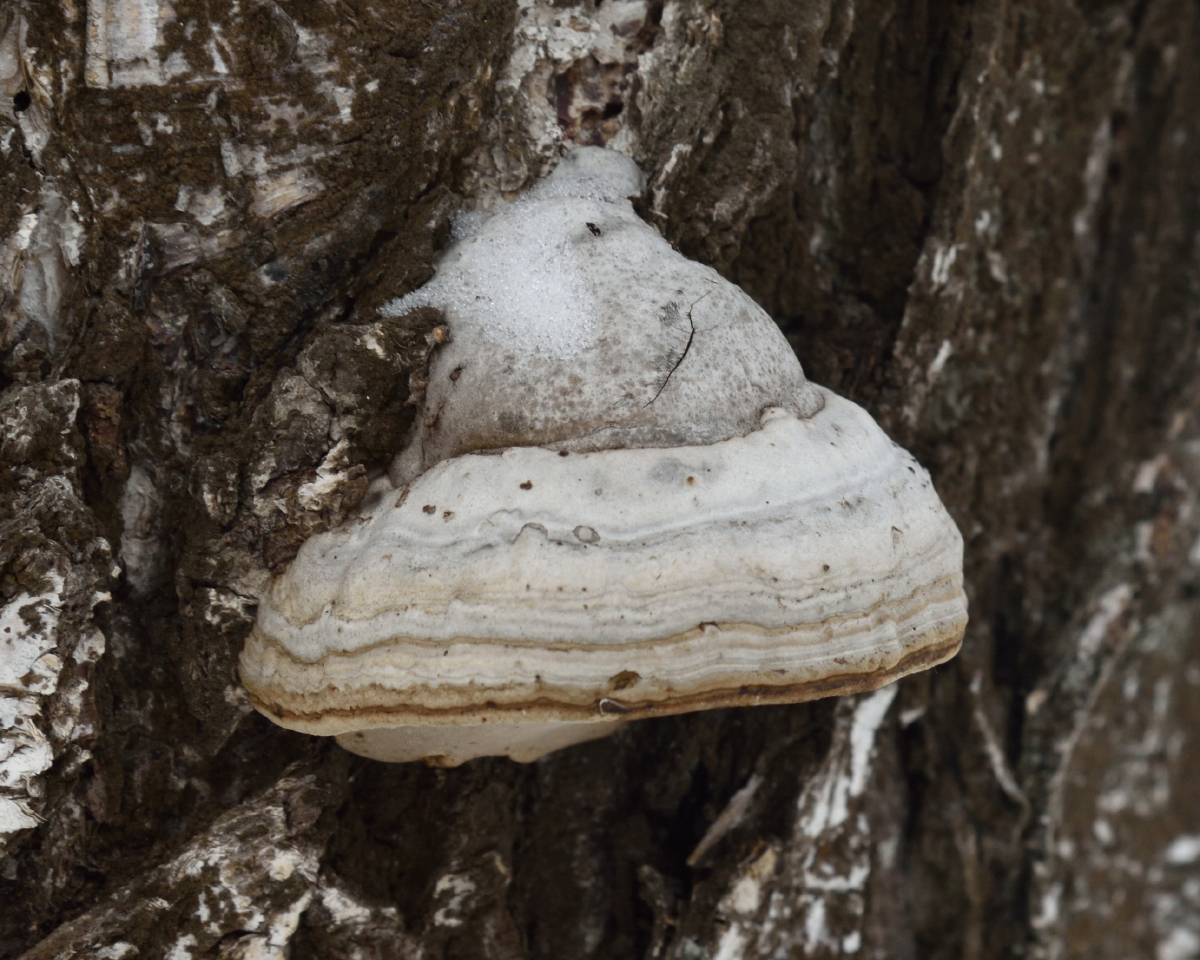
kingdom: Fungi
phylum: Basidiomycota
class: Agaricomycetes
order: Polyporales
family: Polyporaceae
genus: Fomes
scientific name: Fomes fomentarius
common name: Hoof fungus
